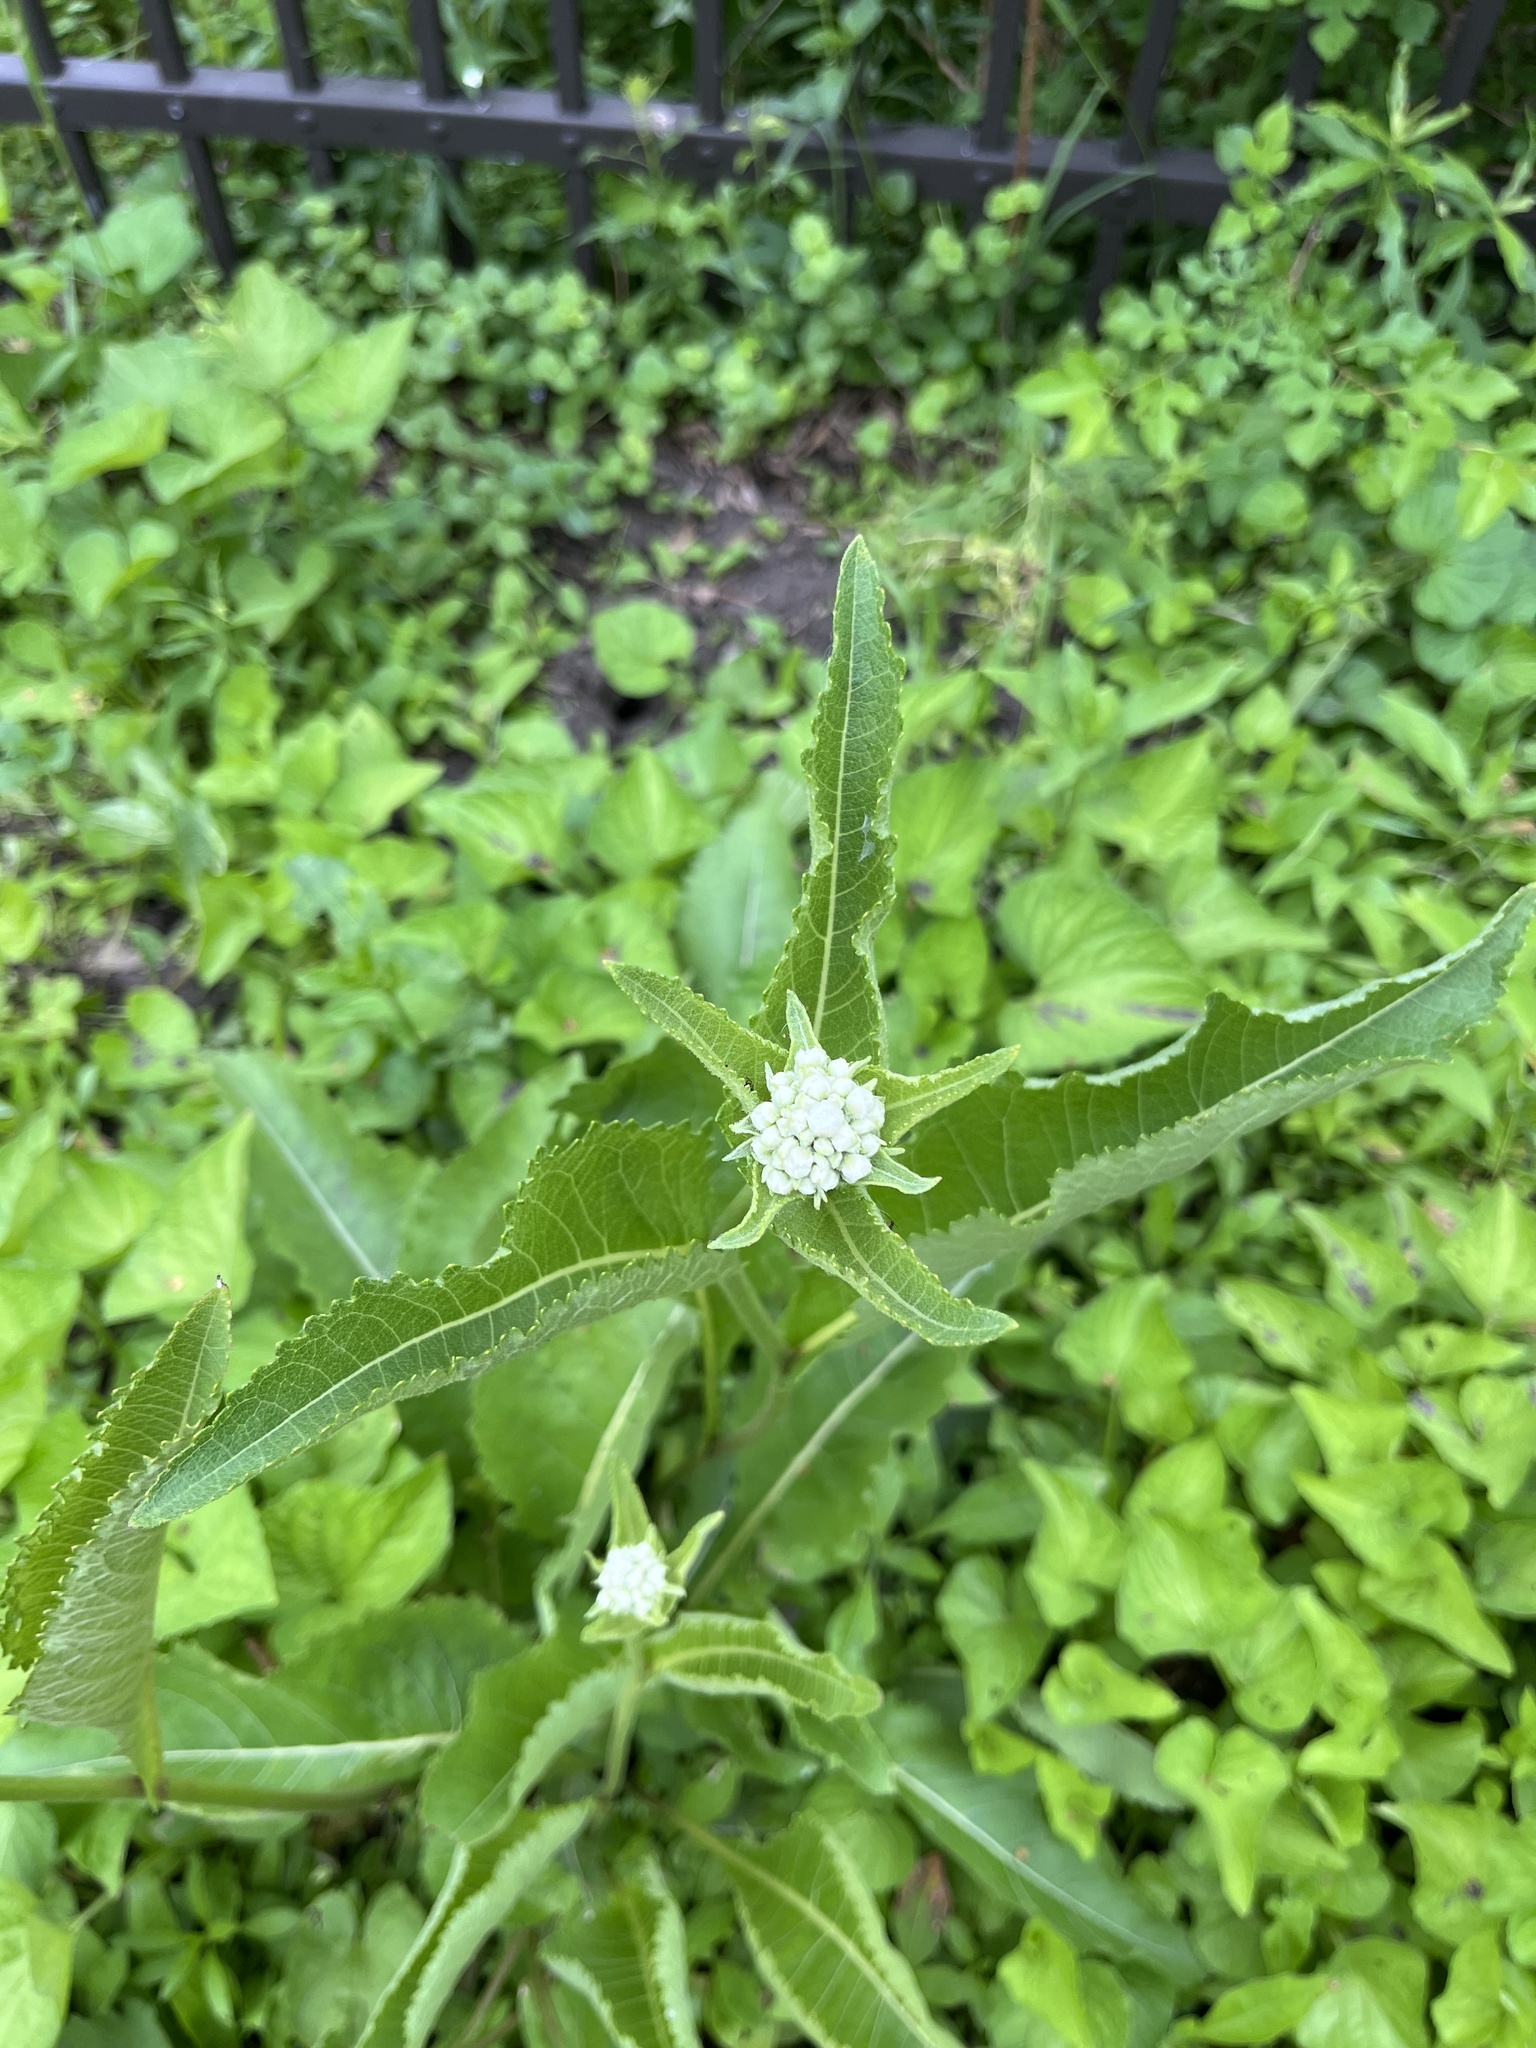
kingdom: Plantae
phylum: Tracheophyta
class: Magnoliopsida
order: Asterales
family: Asteraceae
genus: Parthenium
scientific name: Parthenium integrifolium
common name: American feverfew
